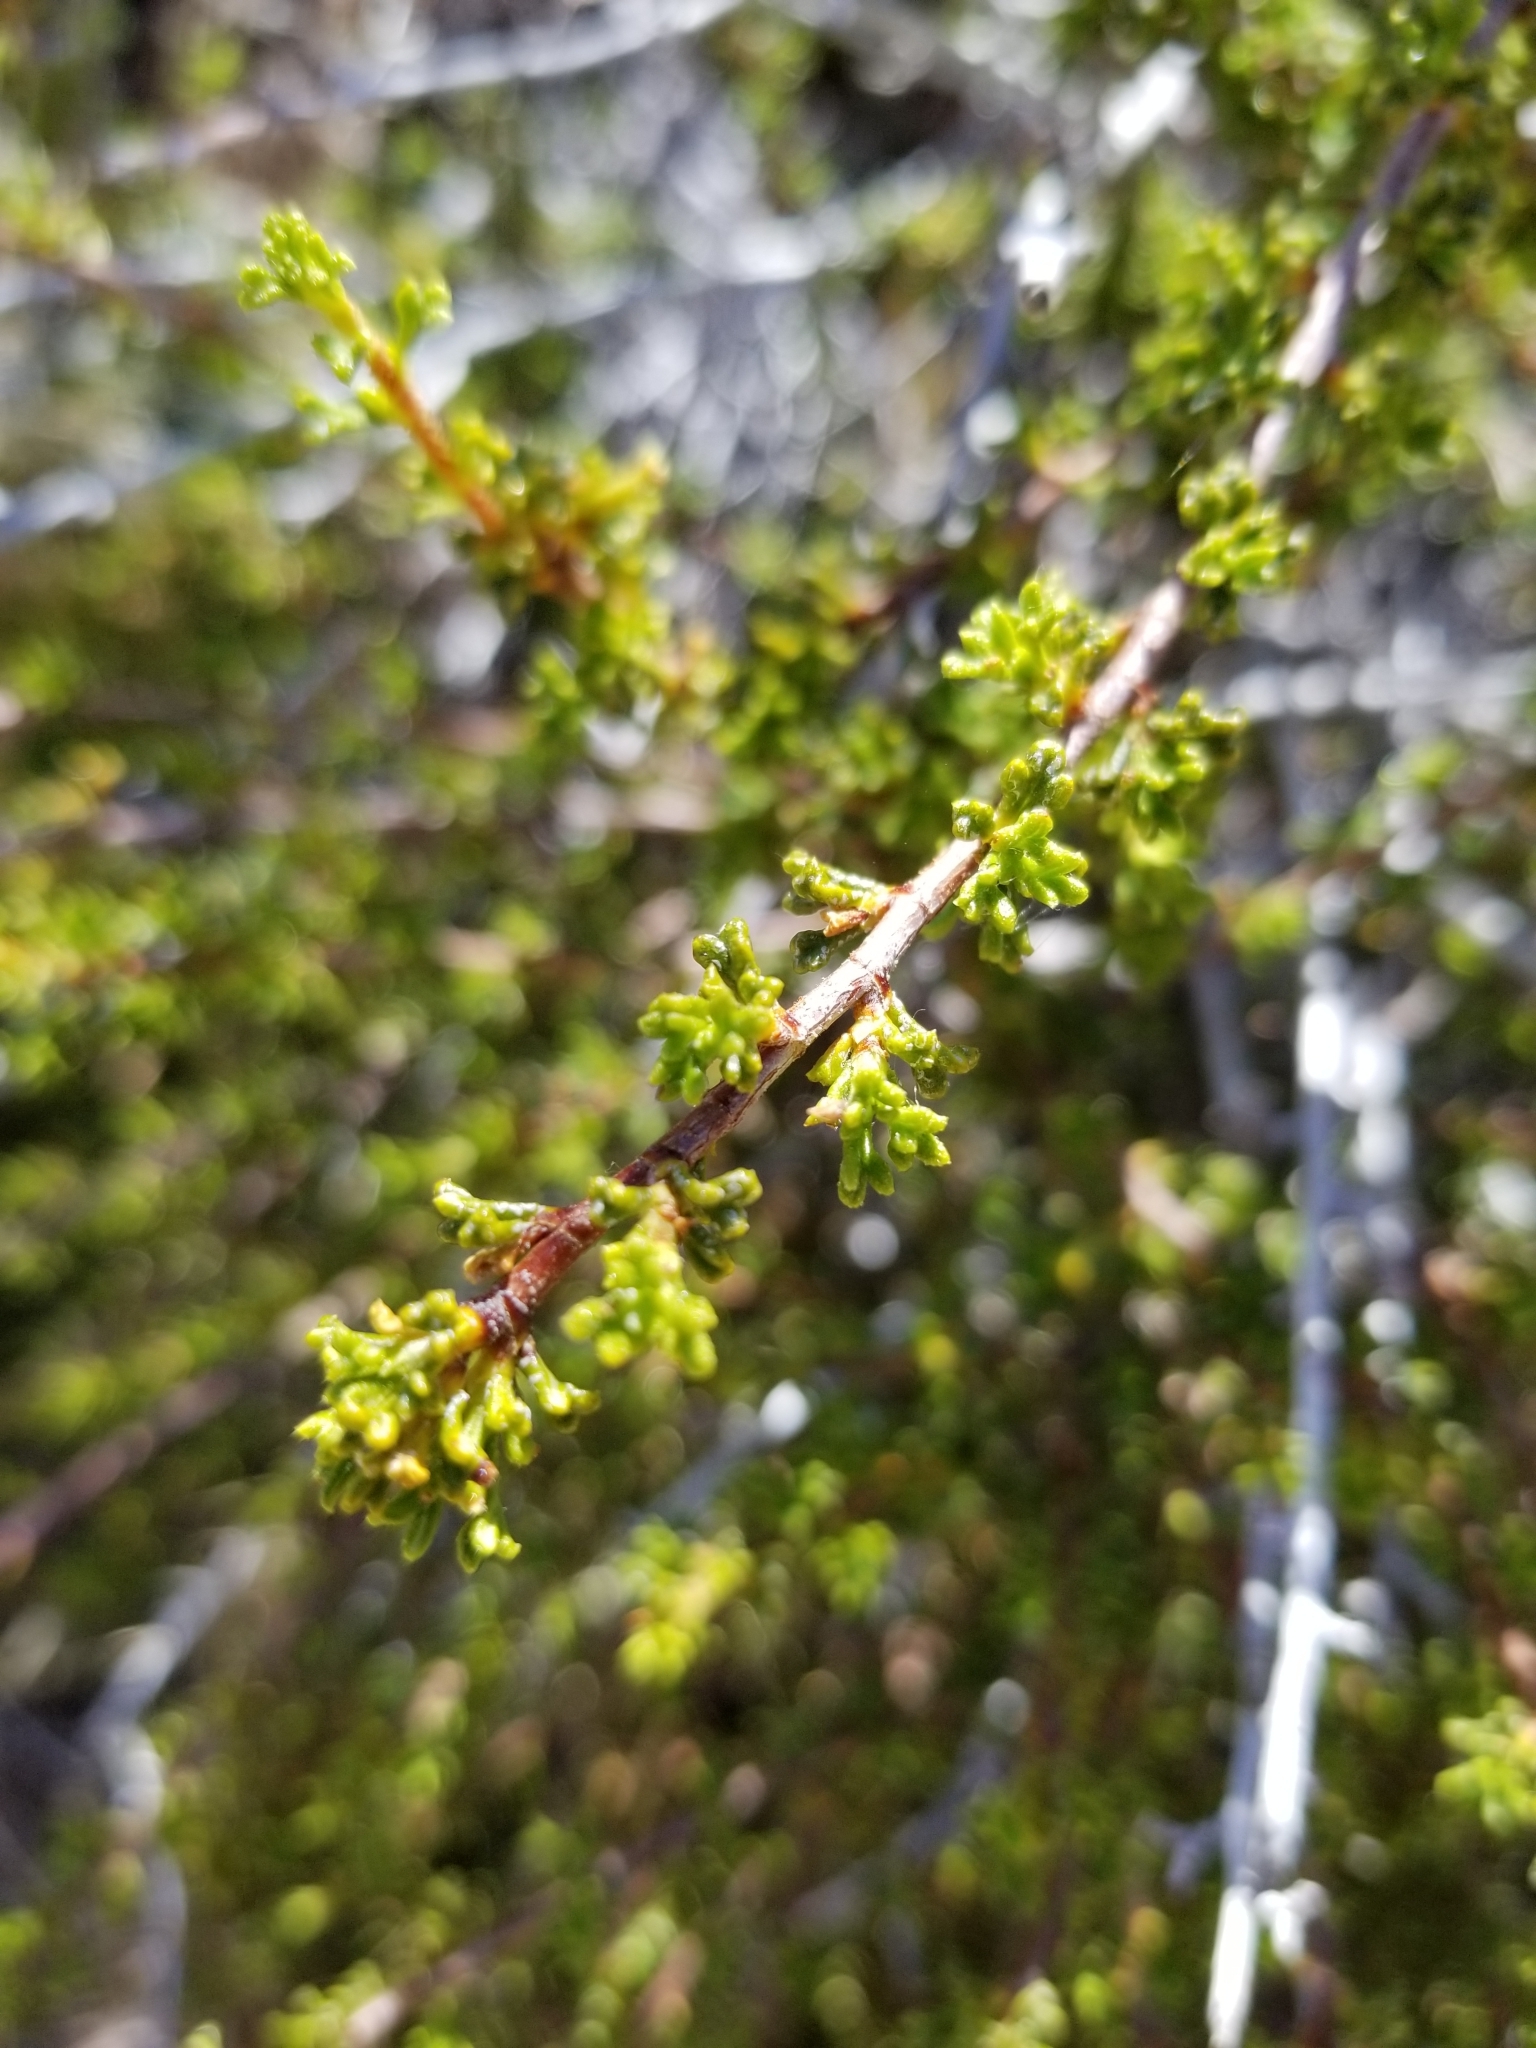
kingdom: Plantae
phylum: Tracheophyta
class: Magnoliopsida
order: Rosales
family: Rosaceae
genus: Purshia
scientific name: Purshia glandulosa
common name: Desert bitterbrush
